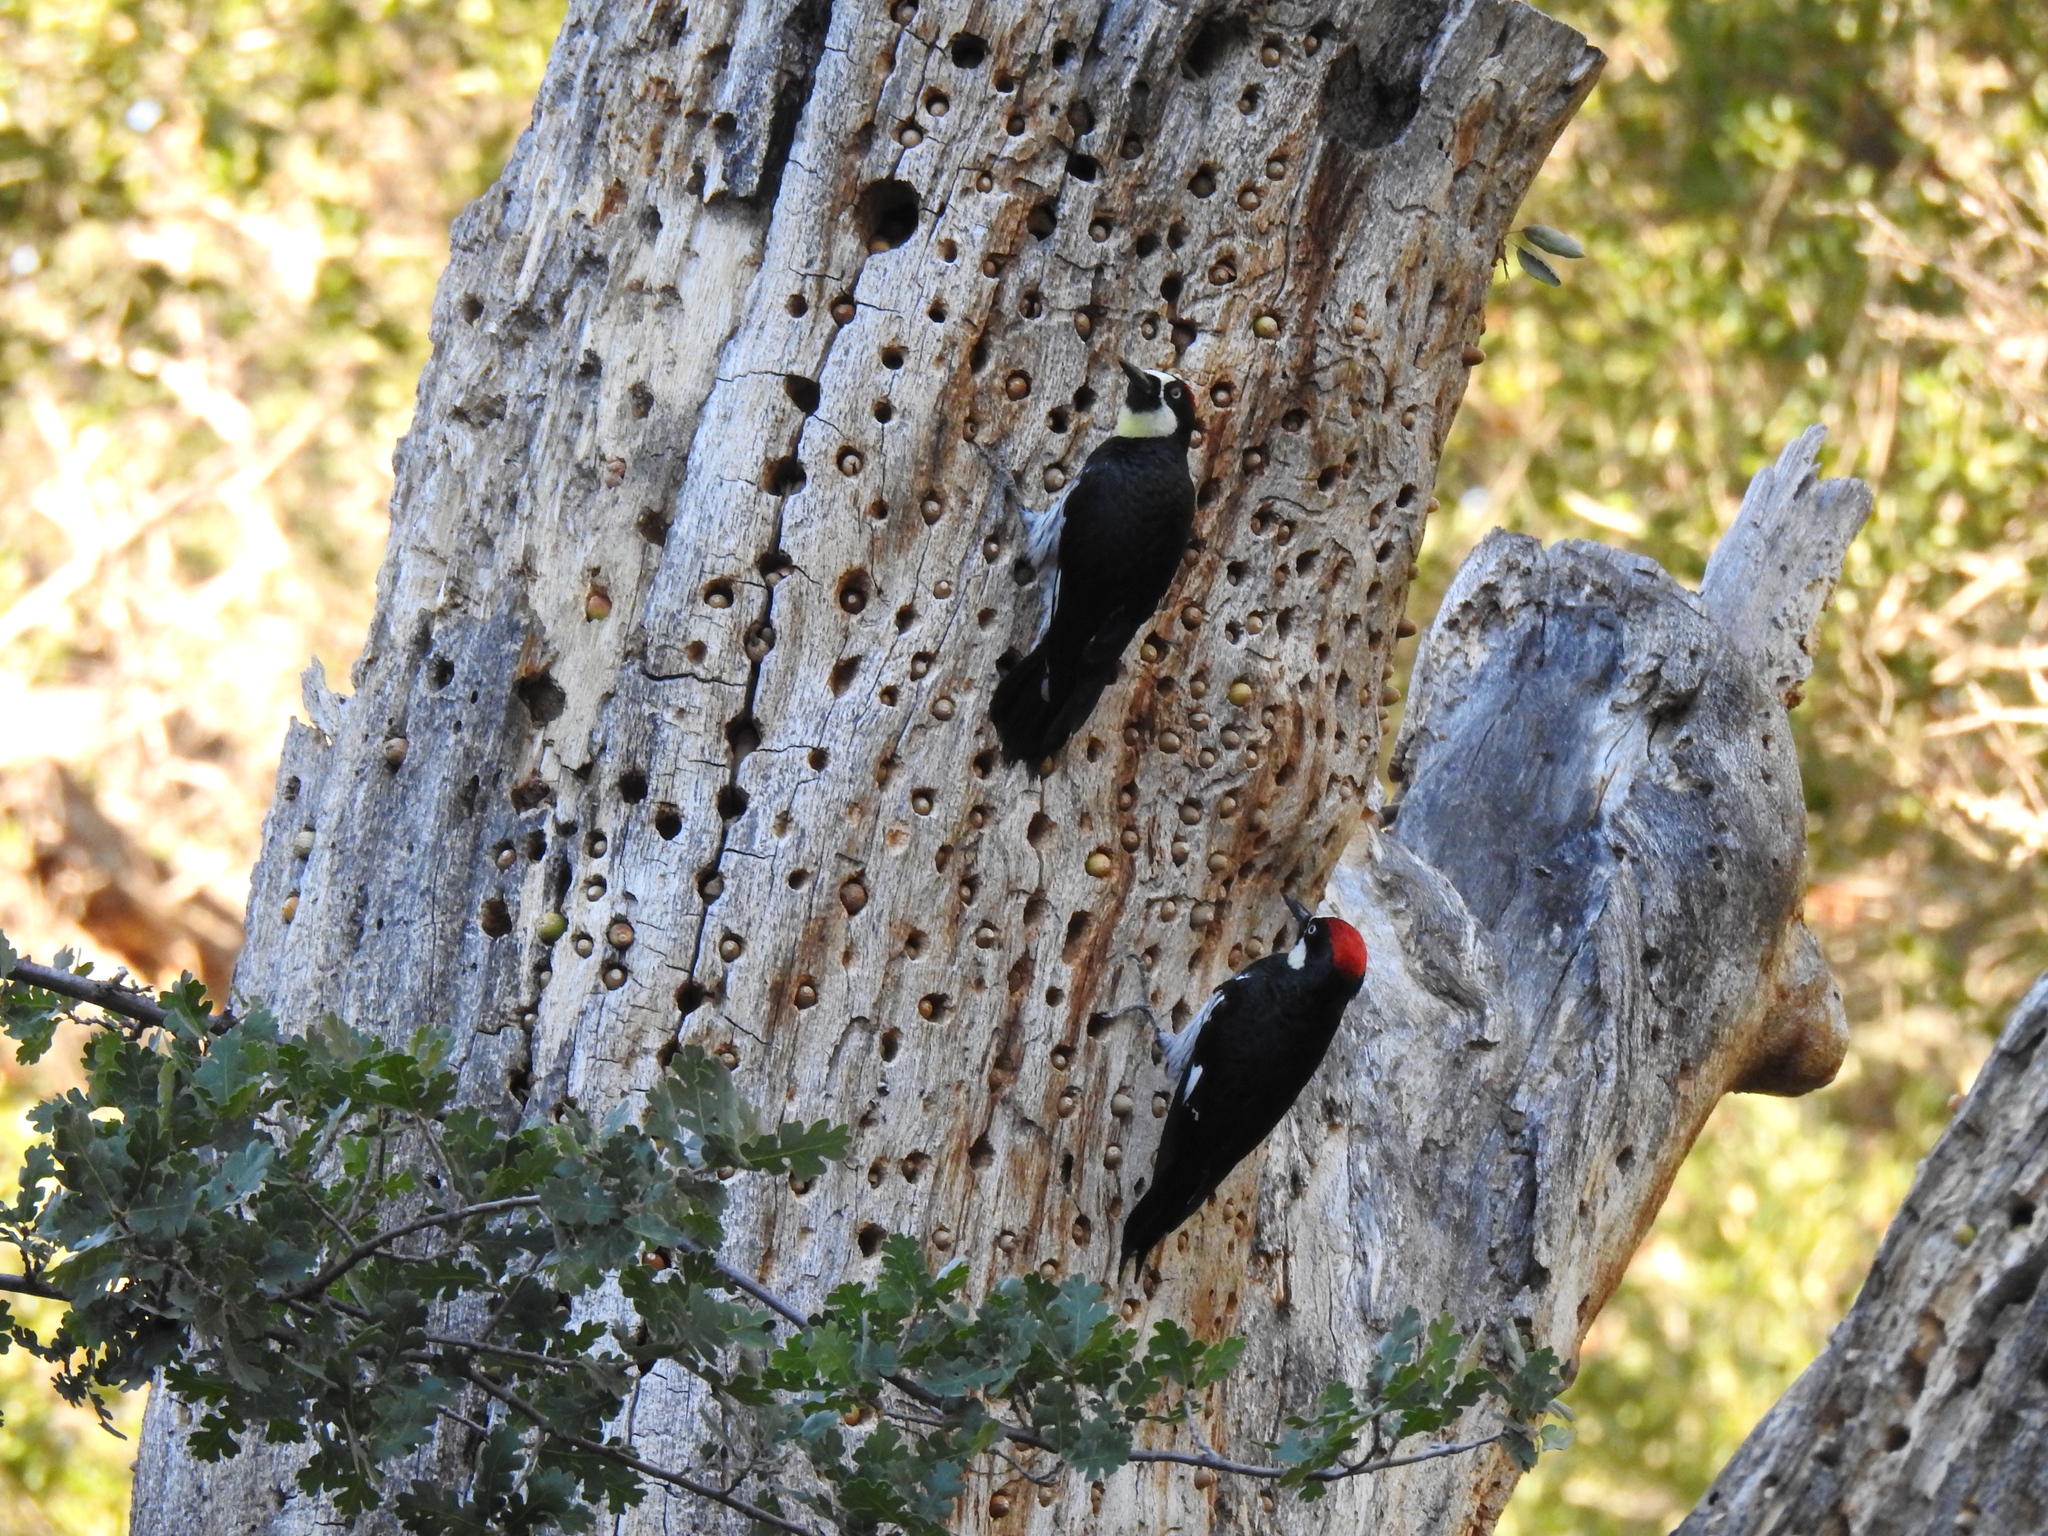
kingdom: Animalia
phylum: Chordata
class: Aves
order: Piciformes
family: Picidae
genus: Melanerpes
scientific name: Melanerpes formicivorus
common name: Acorn woodpecker
